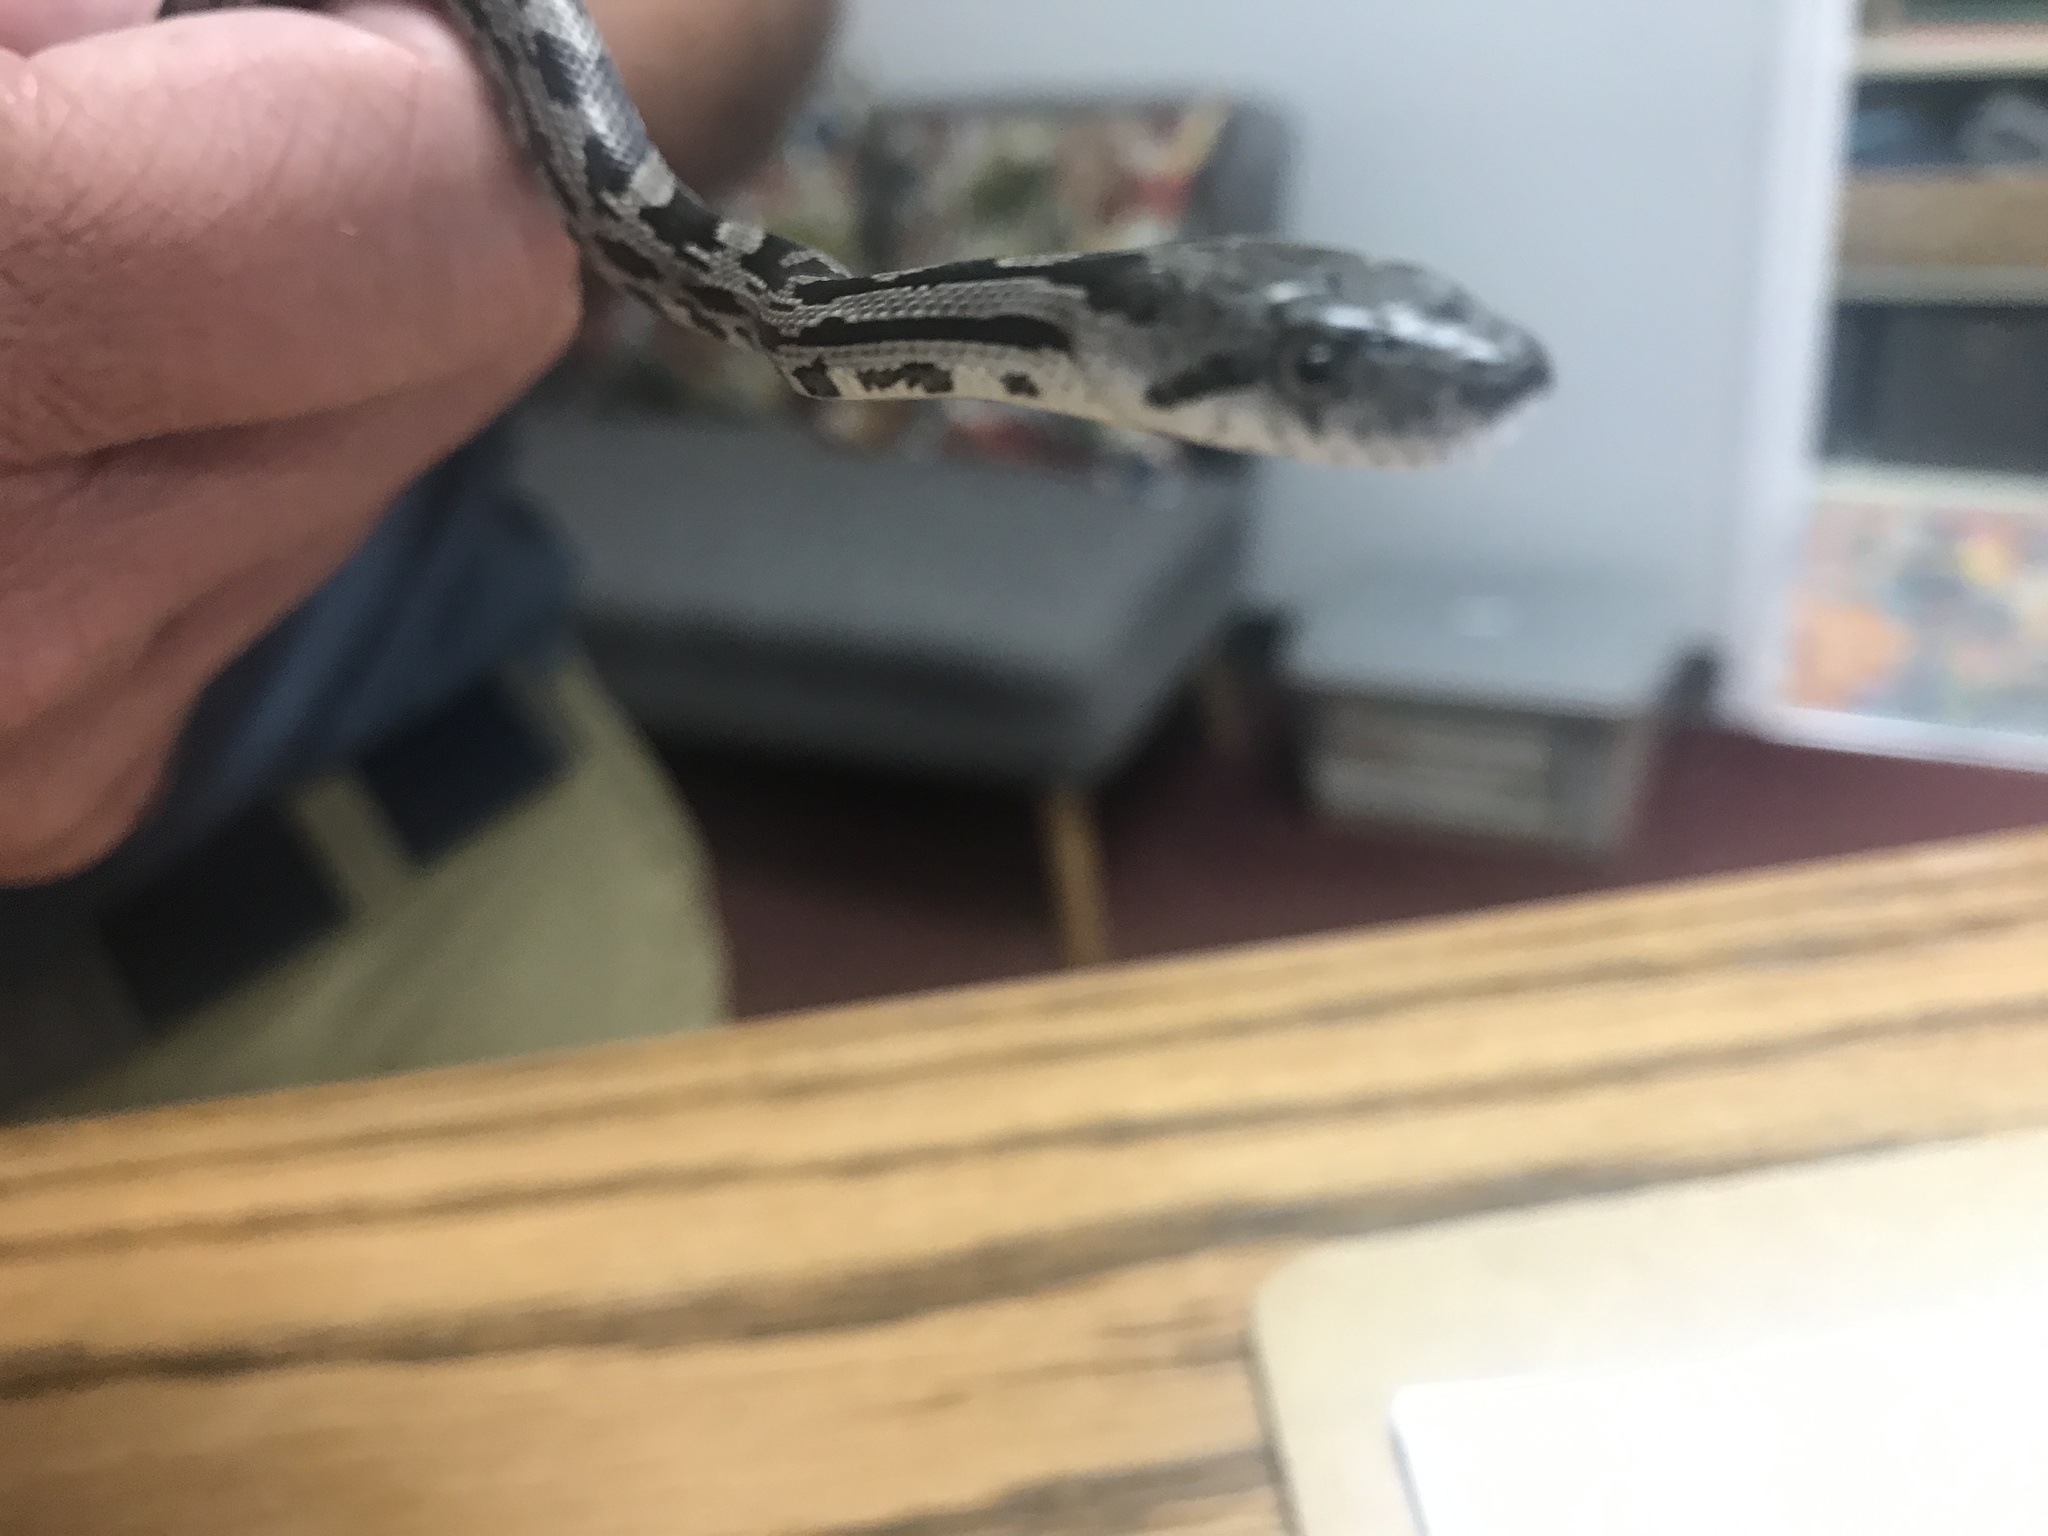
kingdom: Animalia
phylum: Chordata
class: Squamata
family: Colubridae
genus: Pantherophis
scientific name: Pantherophis alleghaniensis
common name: Eastern rat snake
